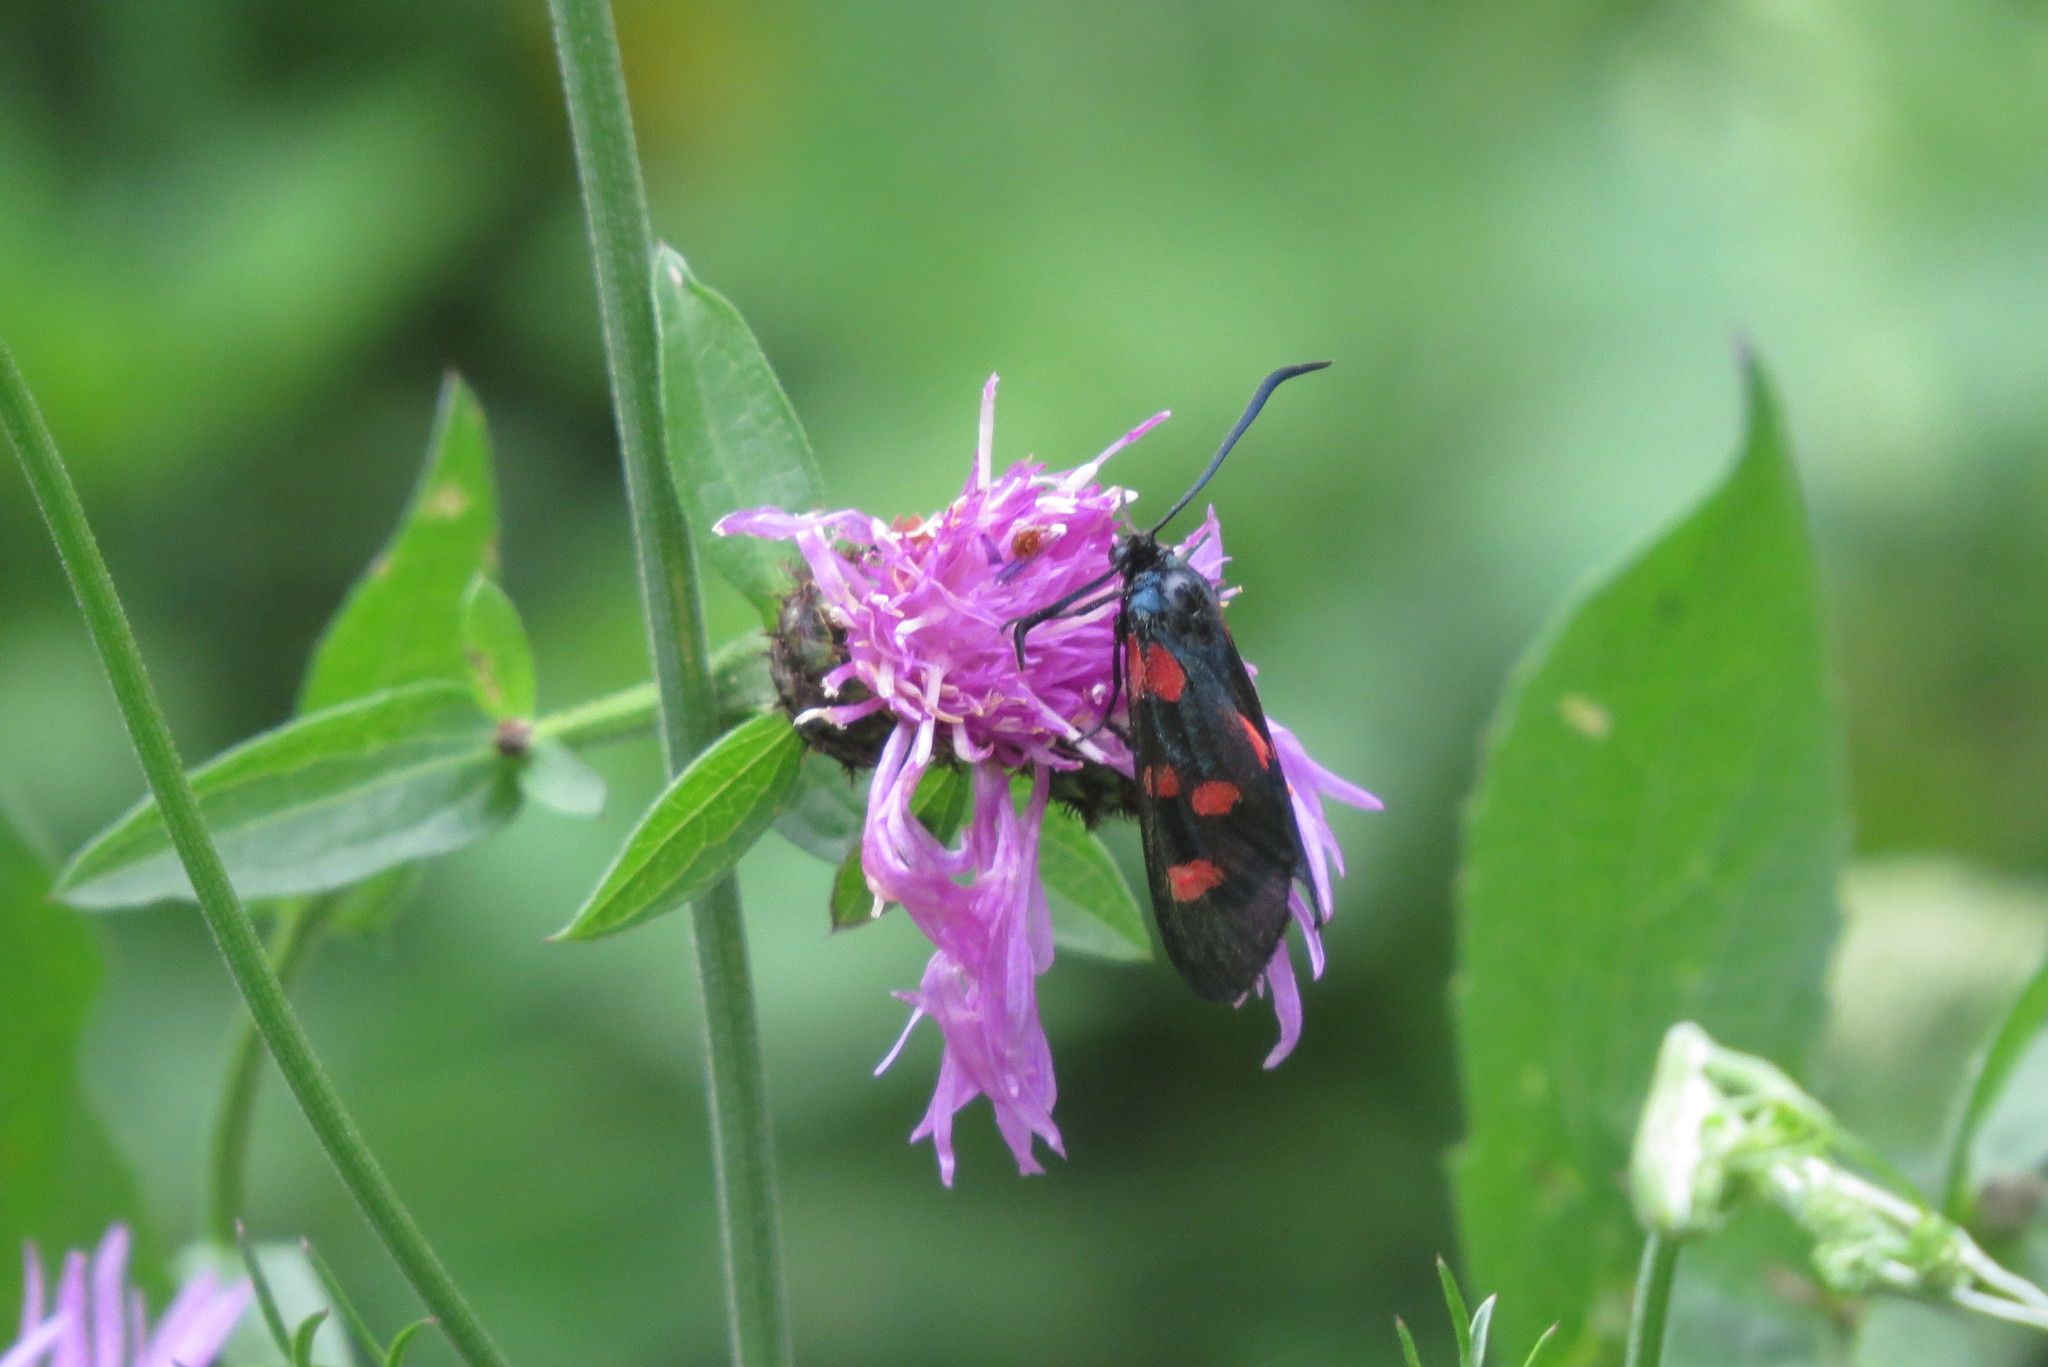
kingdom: Animalia
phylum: Arthropoda
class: Insecta
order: Lepidoptera
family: Zygaenidae
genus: Zygaena
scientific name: Zygaena lonicerae
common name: Narrow-bordered five-spot burnet
